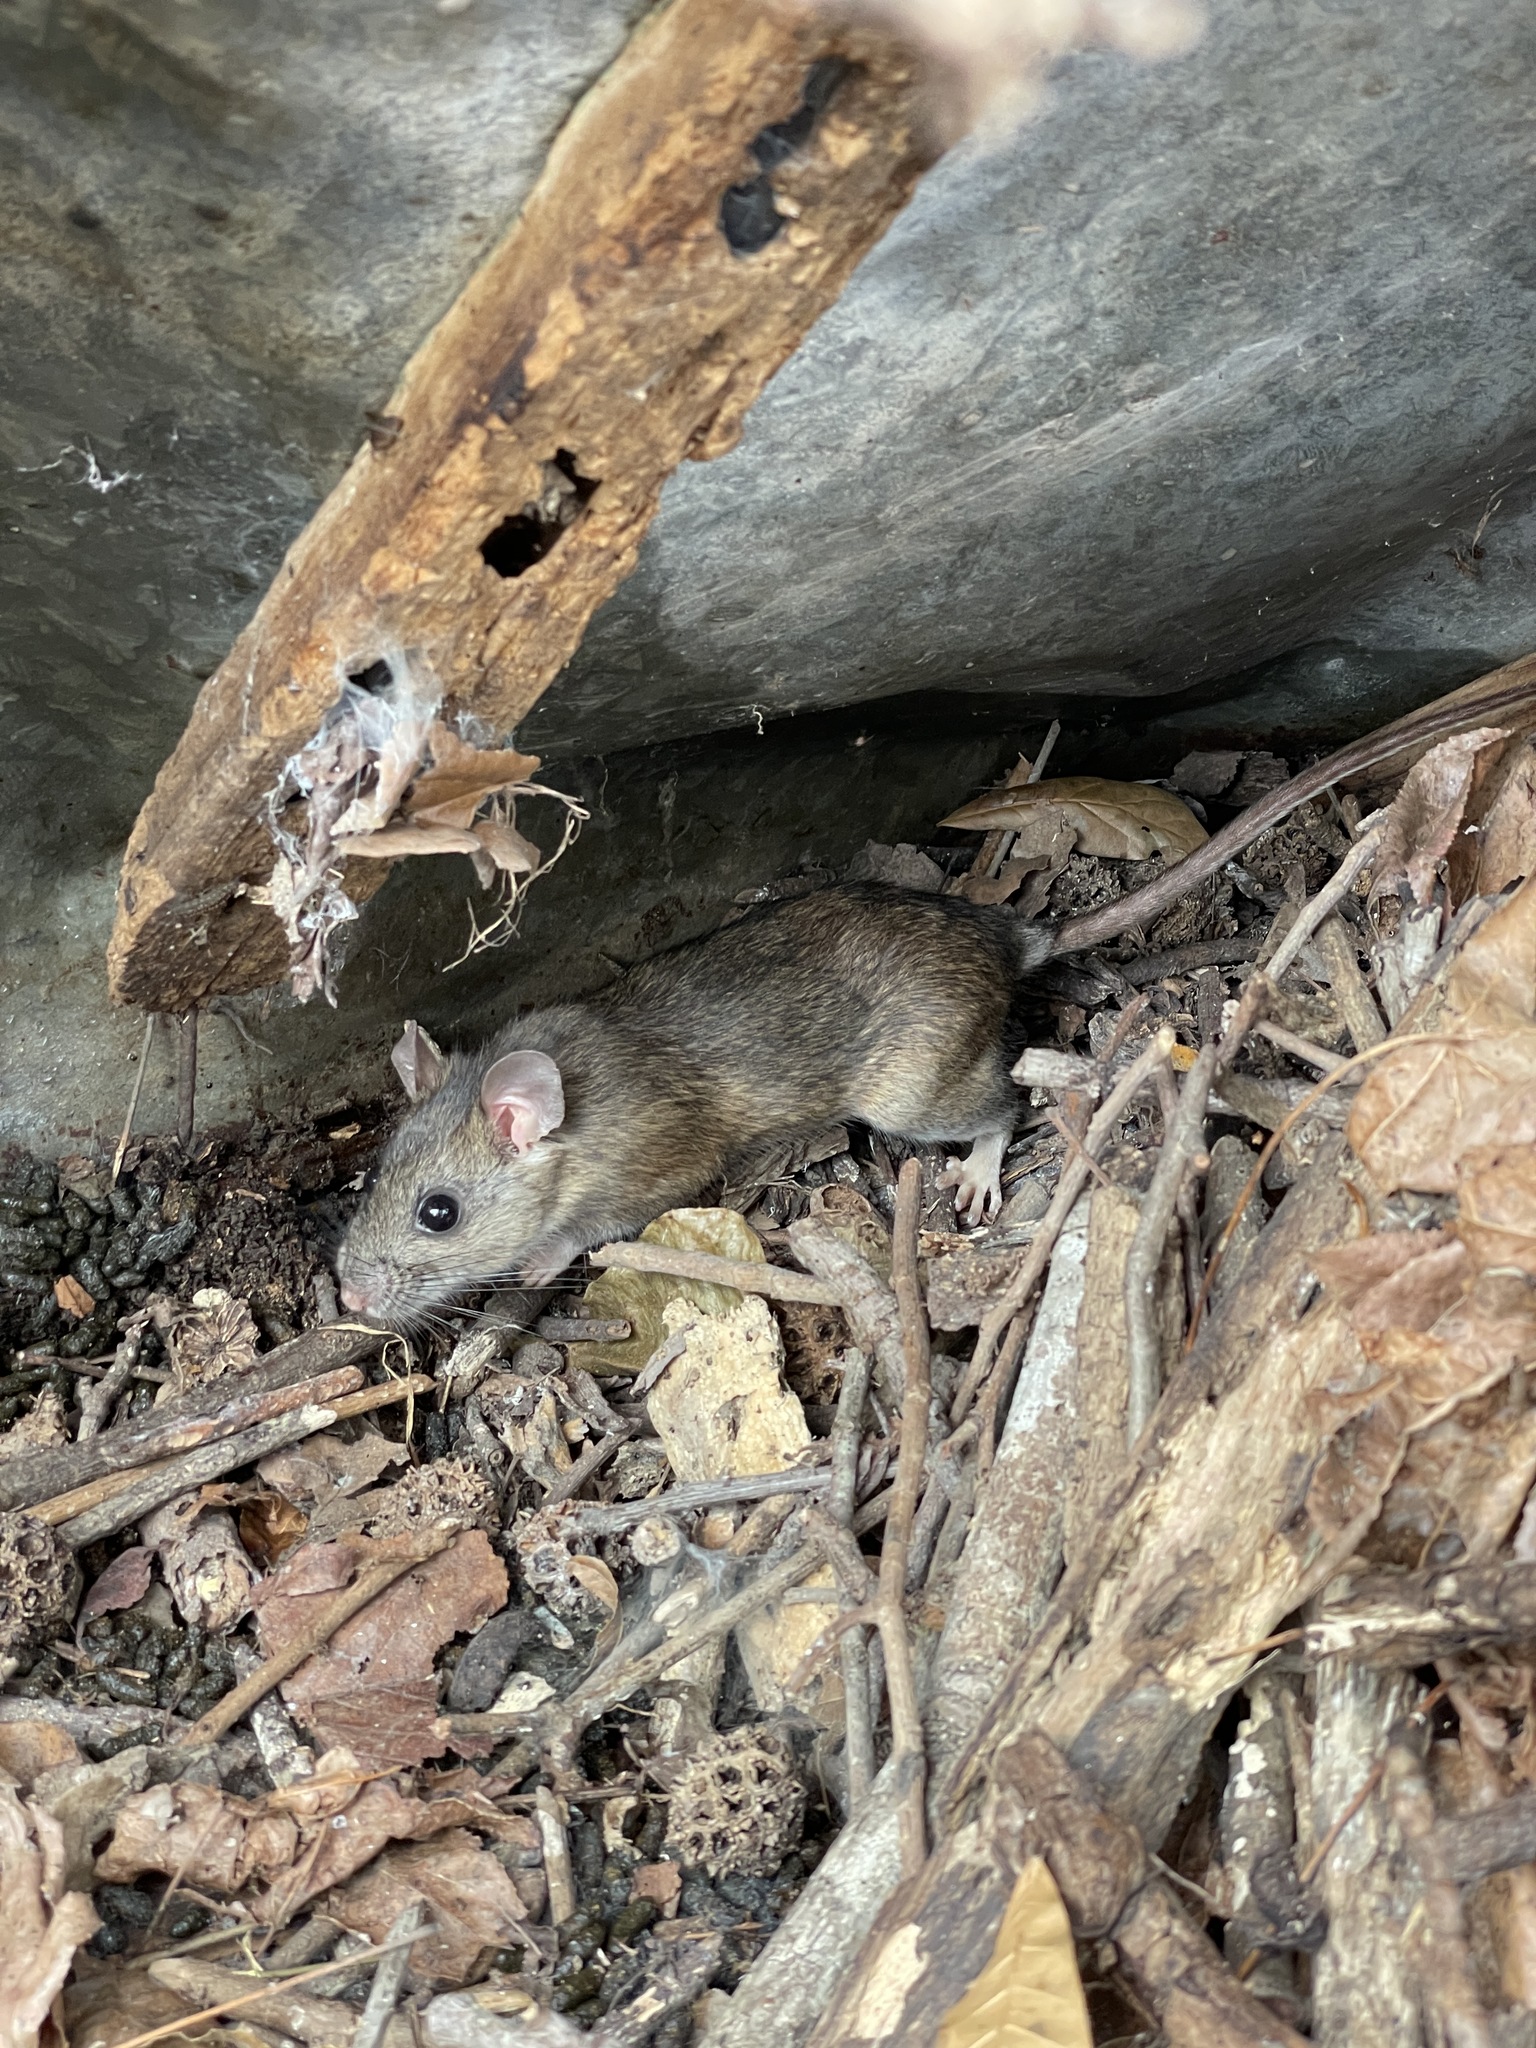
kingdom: Animalia
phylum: Chordata
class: Mammalia
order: Rodentia
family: Cricetidae
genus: Neotoma
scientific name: Neotoma floridana
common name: Eastern woodrat
